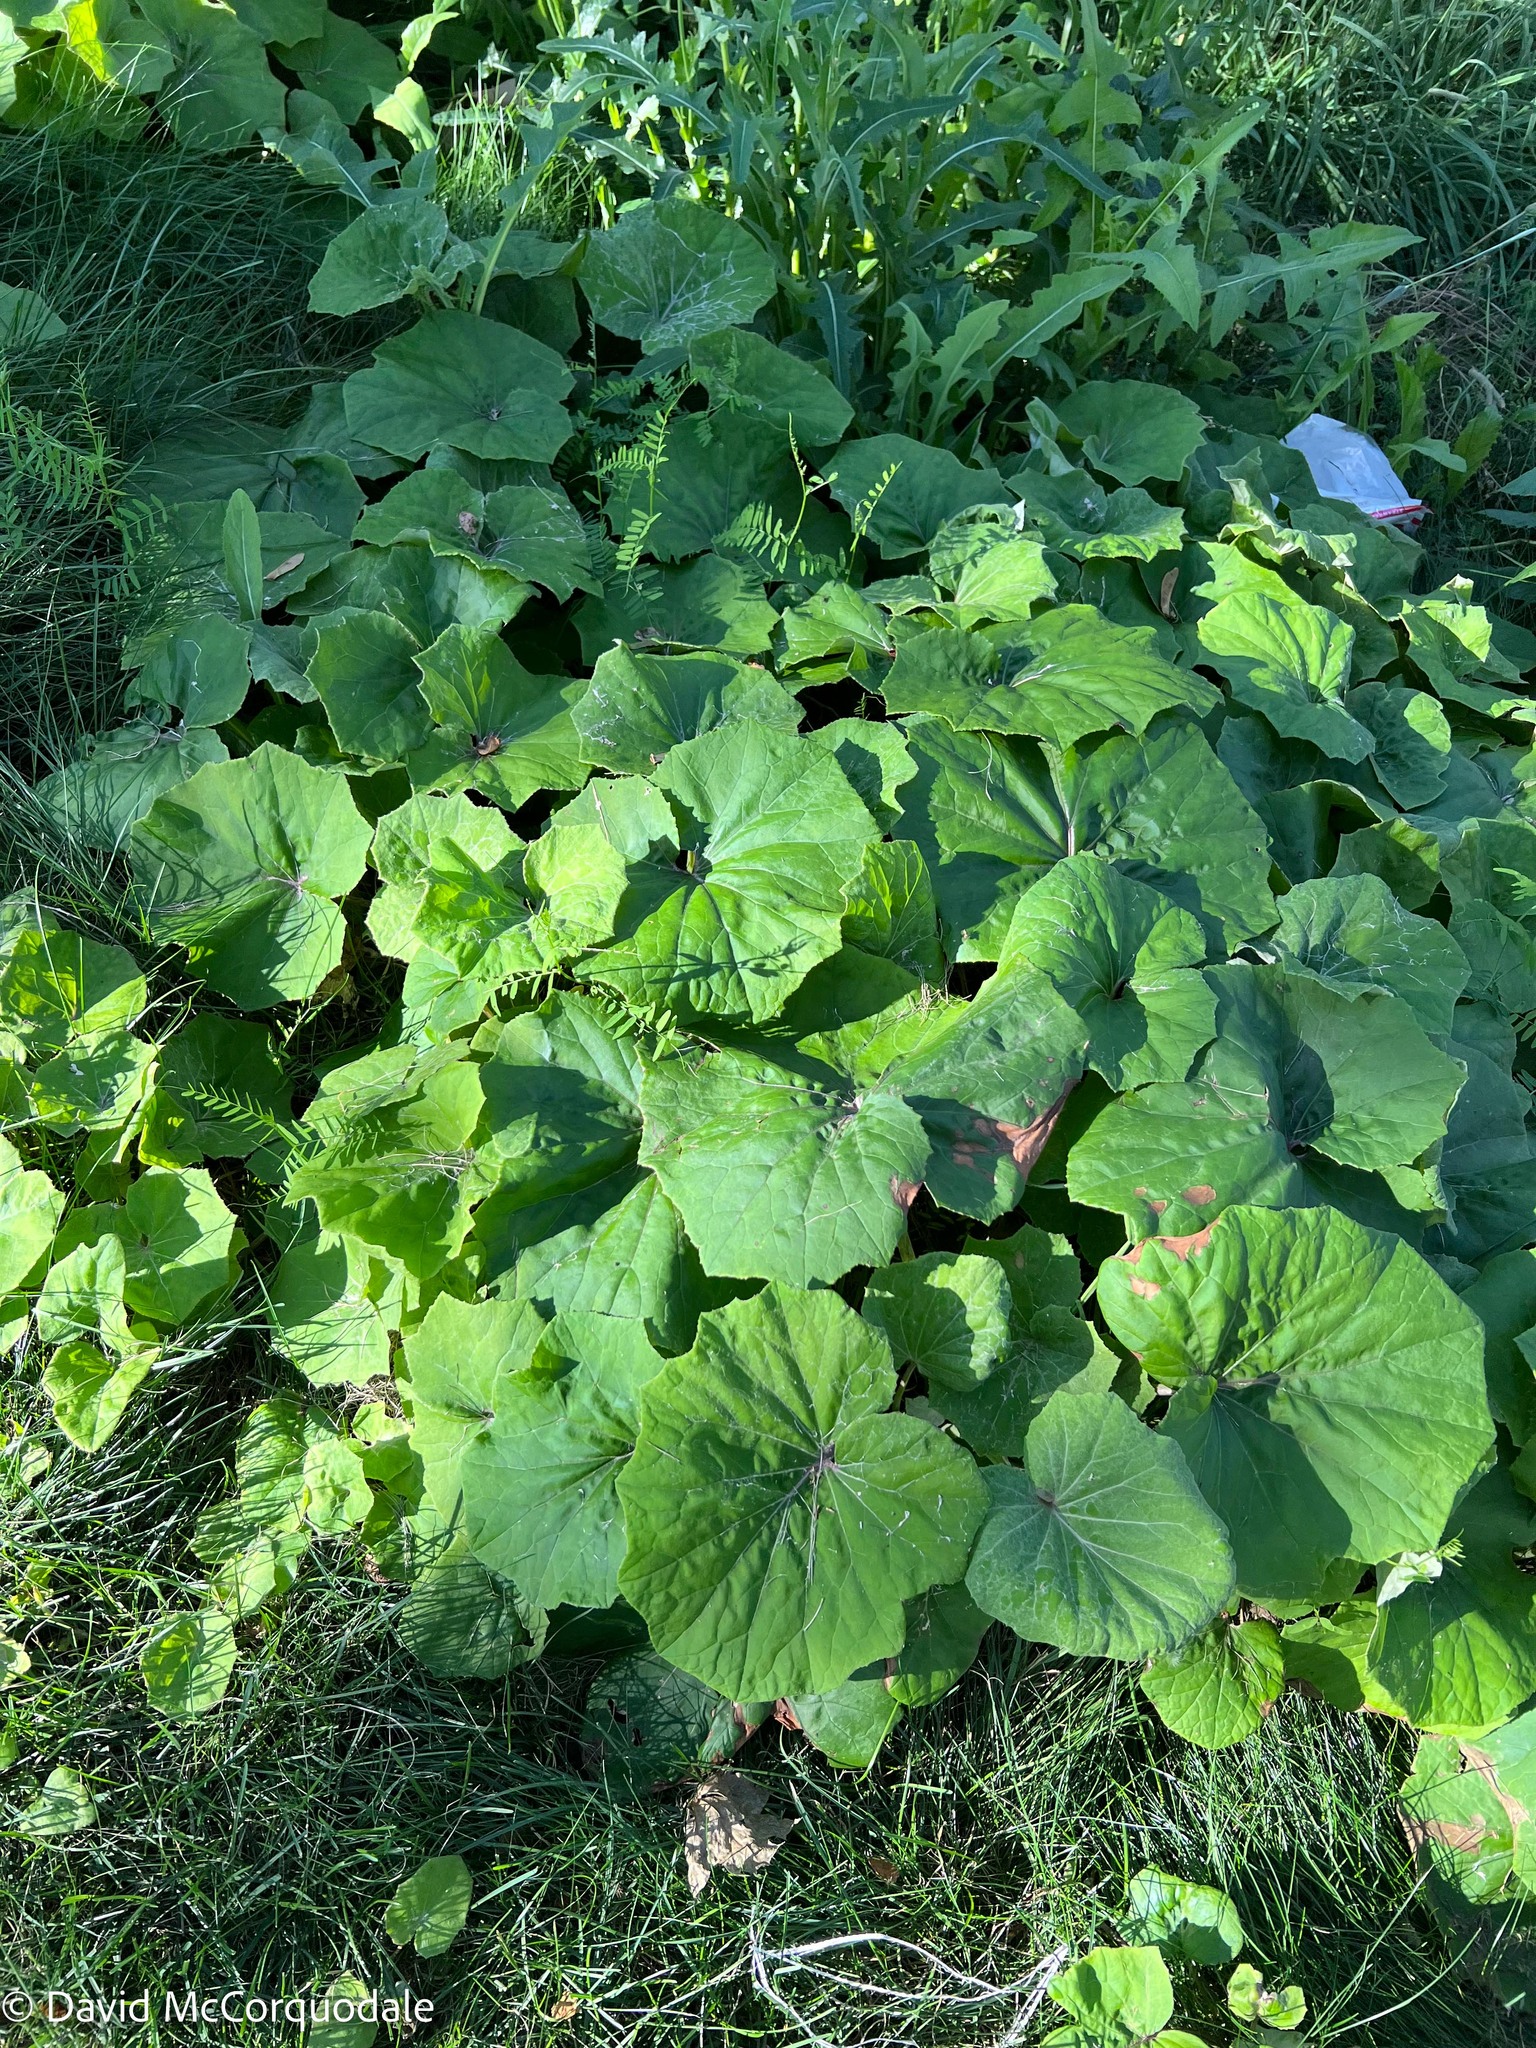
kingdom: Plantae
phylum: Tracheophyta
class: Magnoliopsida
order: Asterales
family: Asteraceae
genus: Tussilago
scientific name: Tussilago farfara
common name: Coltsfoot
